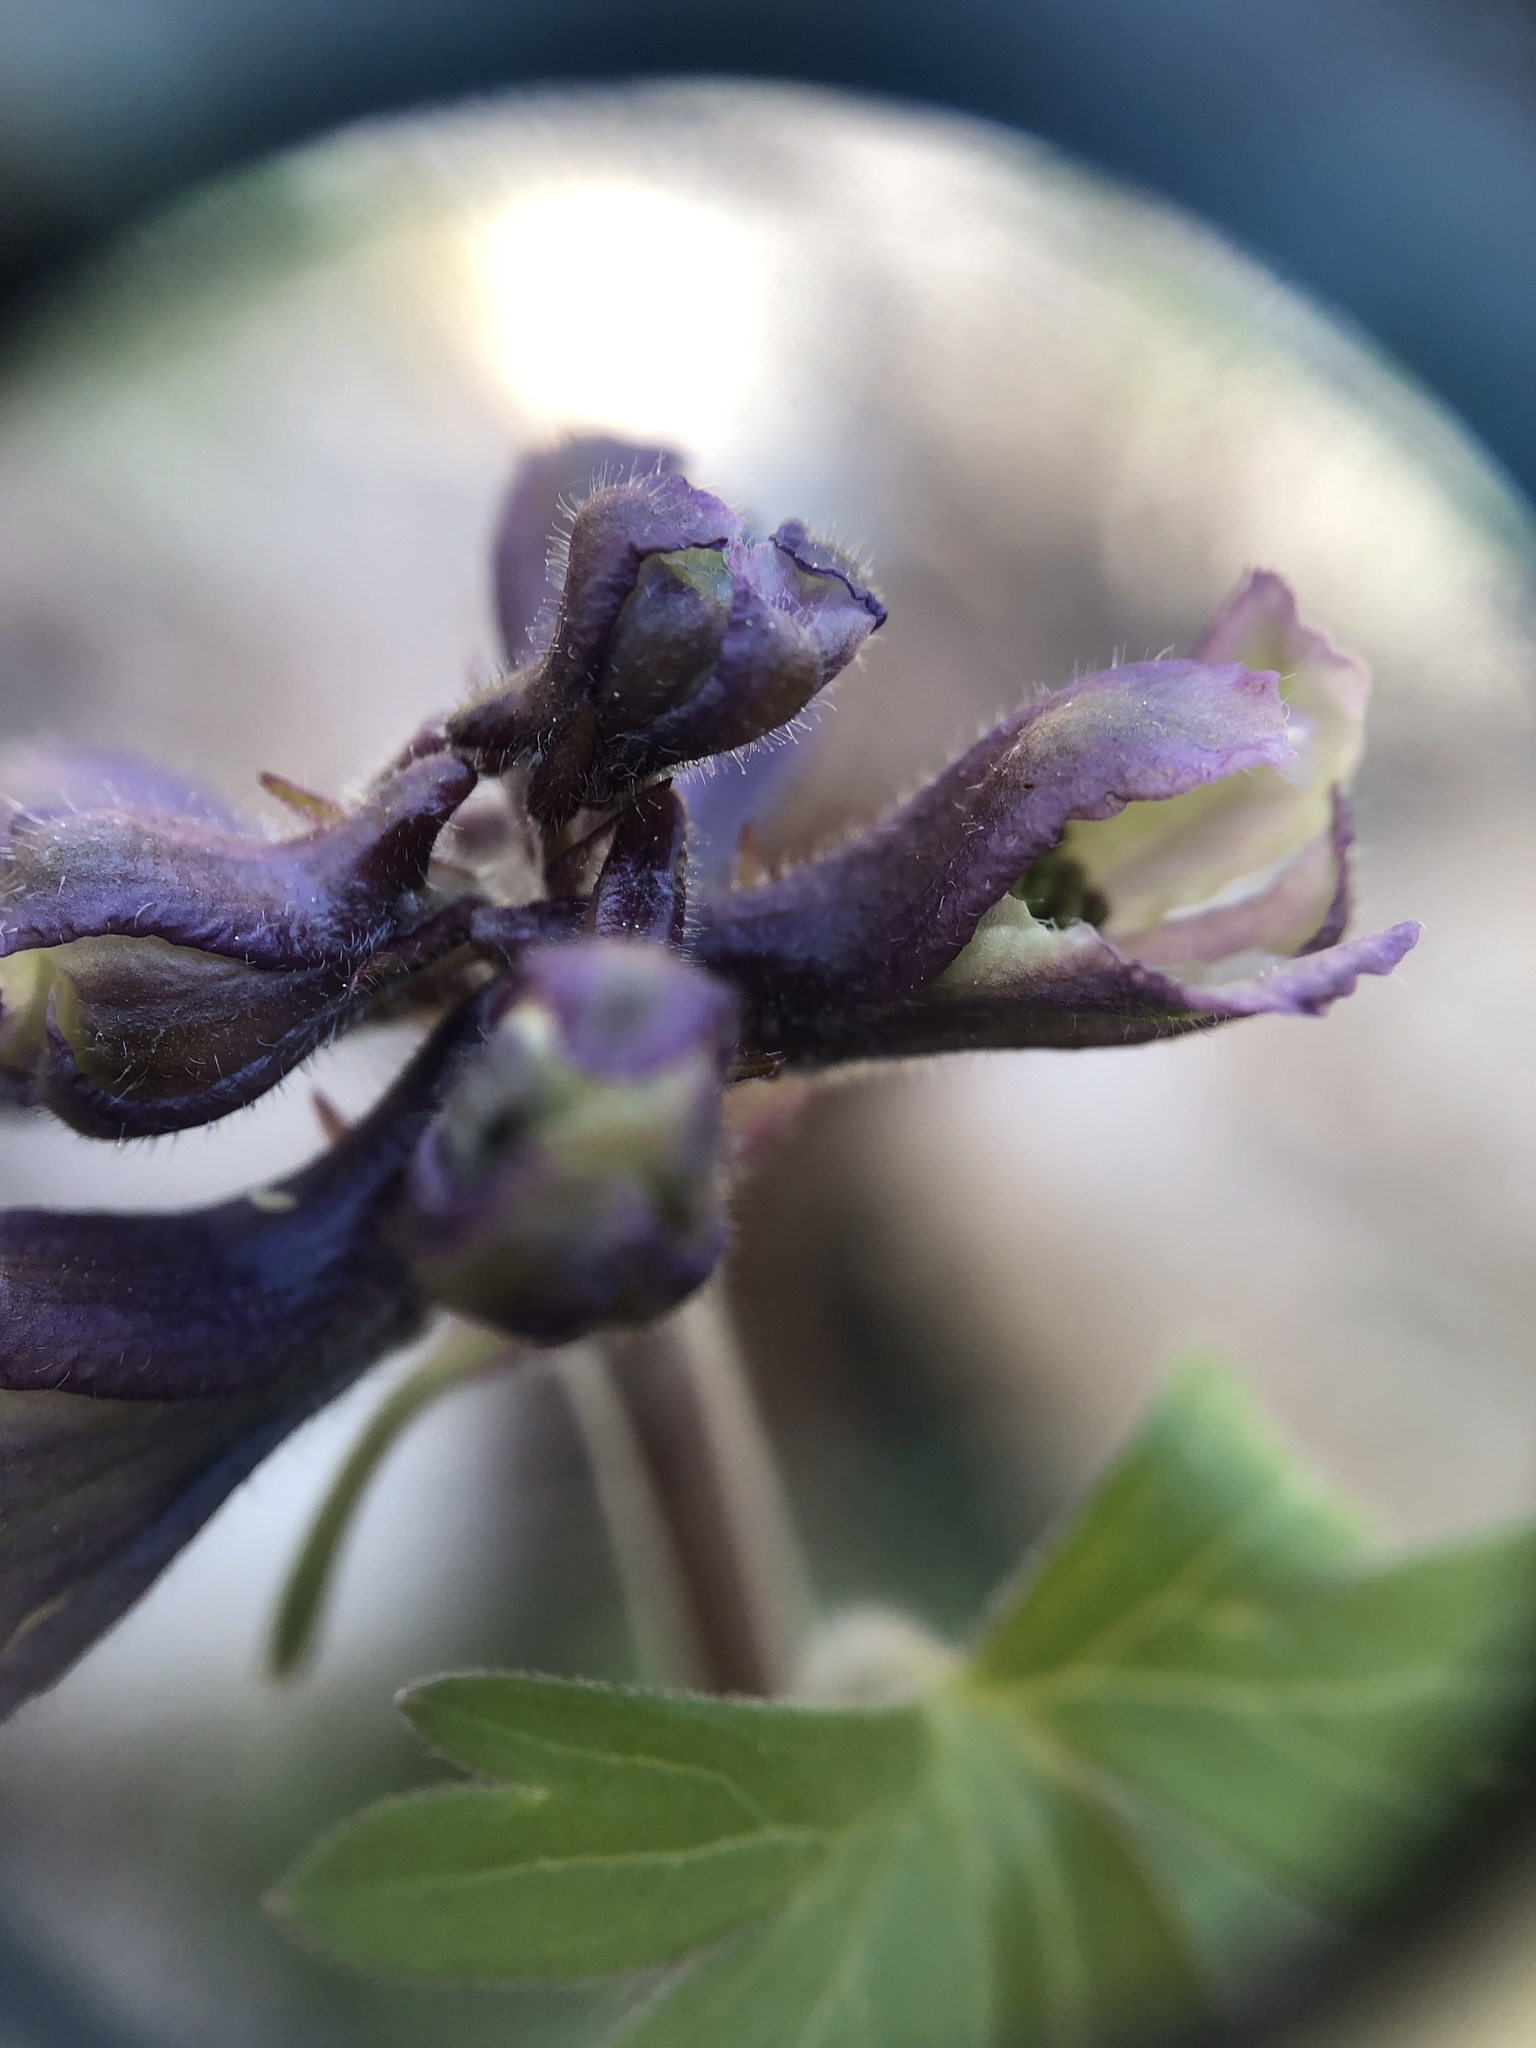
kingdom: Plantae
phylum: Tracheophyta
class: Magnoliopsida
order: Ranunculales
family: Ranunculaceae
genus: Delphinium
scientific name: Delphinium tricorne
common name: Dwarf larkspur
